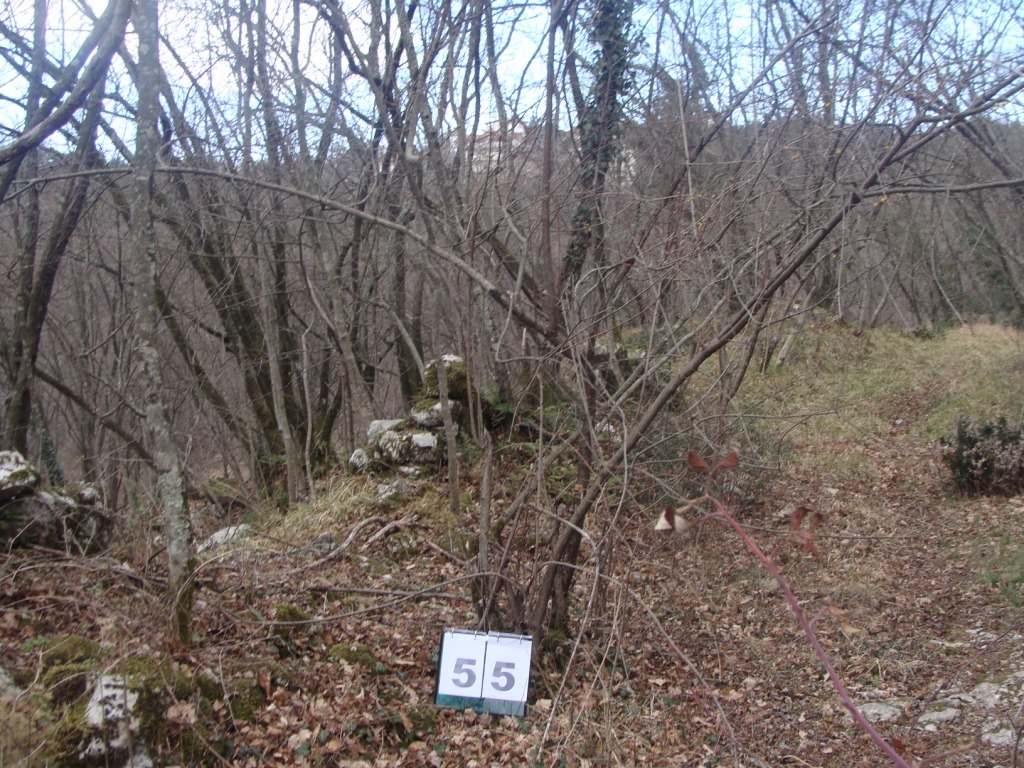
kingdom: Plantae
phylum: Tracheophyta
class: Magnoliopsida
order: Cornales
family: Cornaceae
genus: Cornus
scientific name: Cornus mas
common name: Cornelian-cherry
